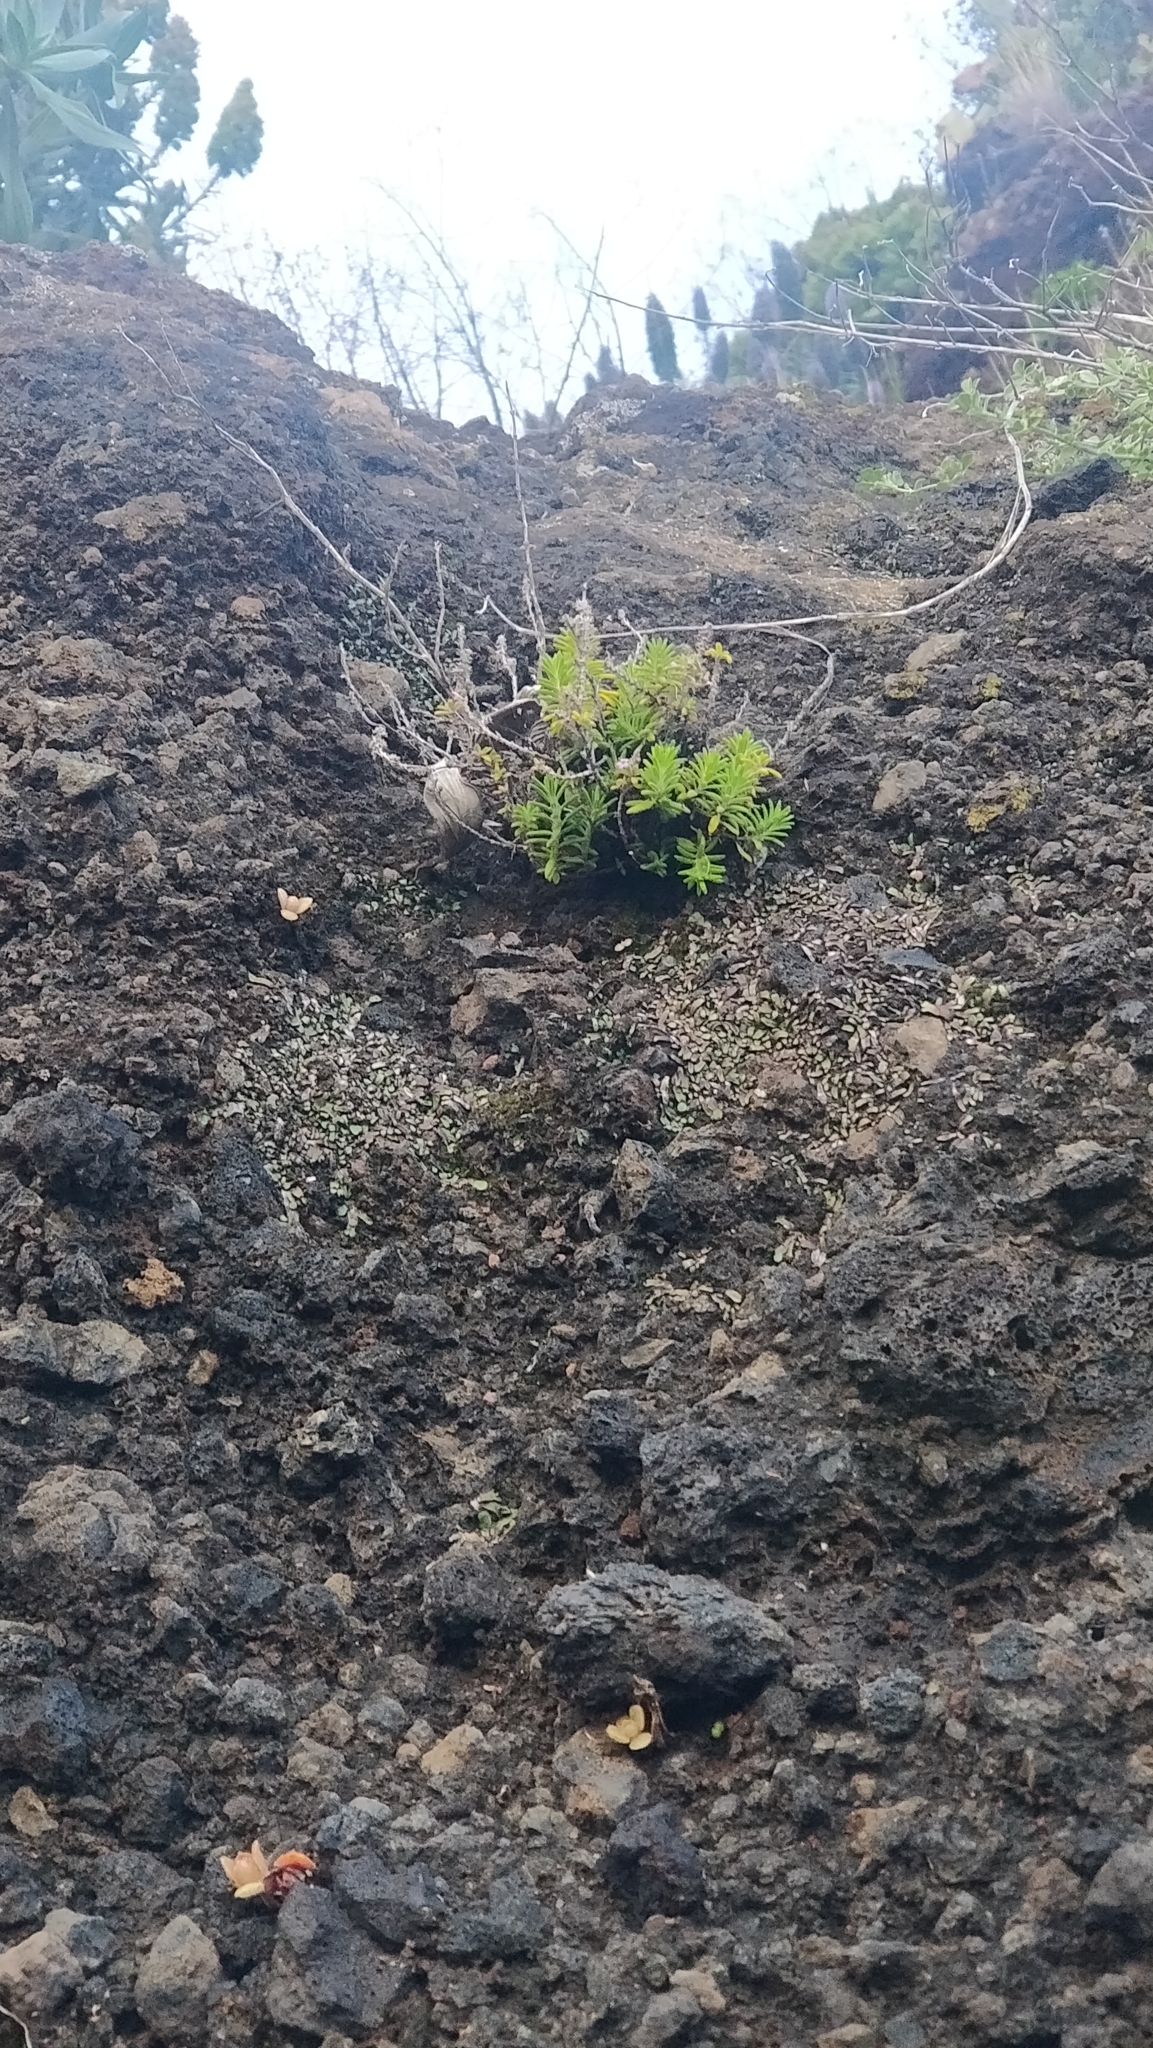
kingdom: Plantae
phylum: Tracheophyta
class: Magnoliopsida
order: Lamiales
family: Lamiaceae
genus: Micromeria
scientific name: Micromeria maderensis
